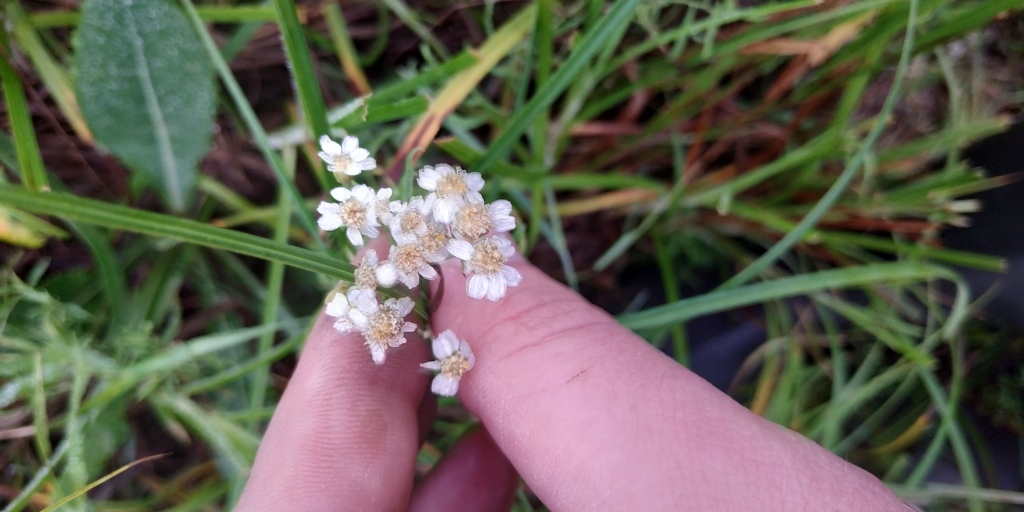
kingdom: Plantae
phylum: Tracheophyta
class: Magnoliopsida
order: Asterales
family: Asteraceae
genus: Achillea
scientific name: Achillea salicifolia
